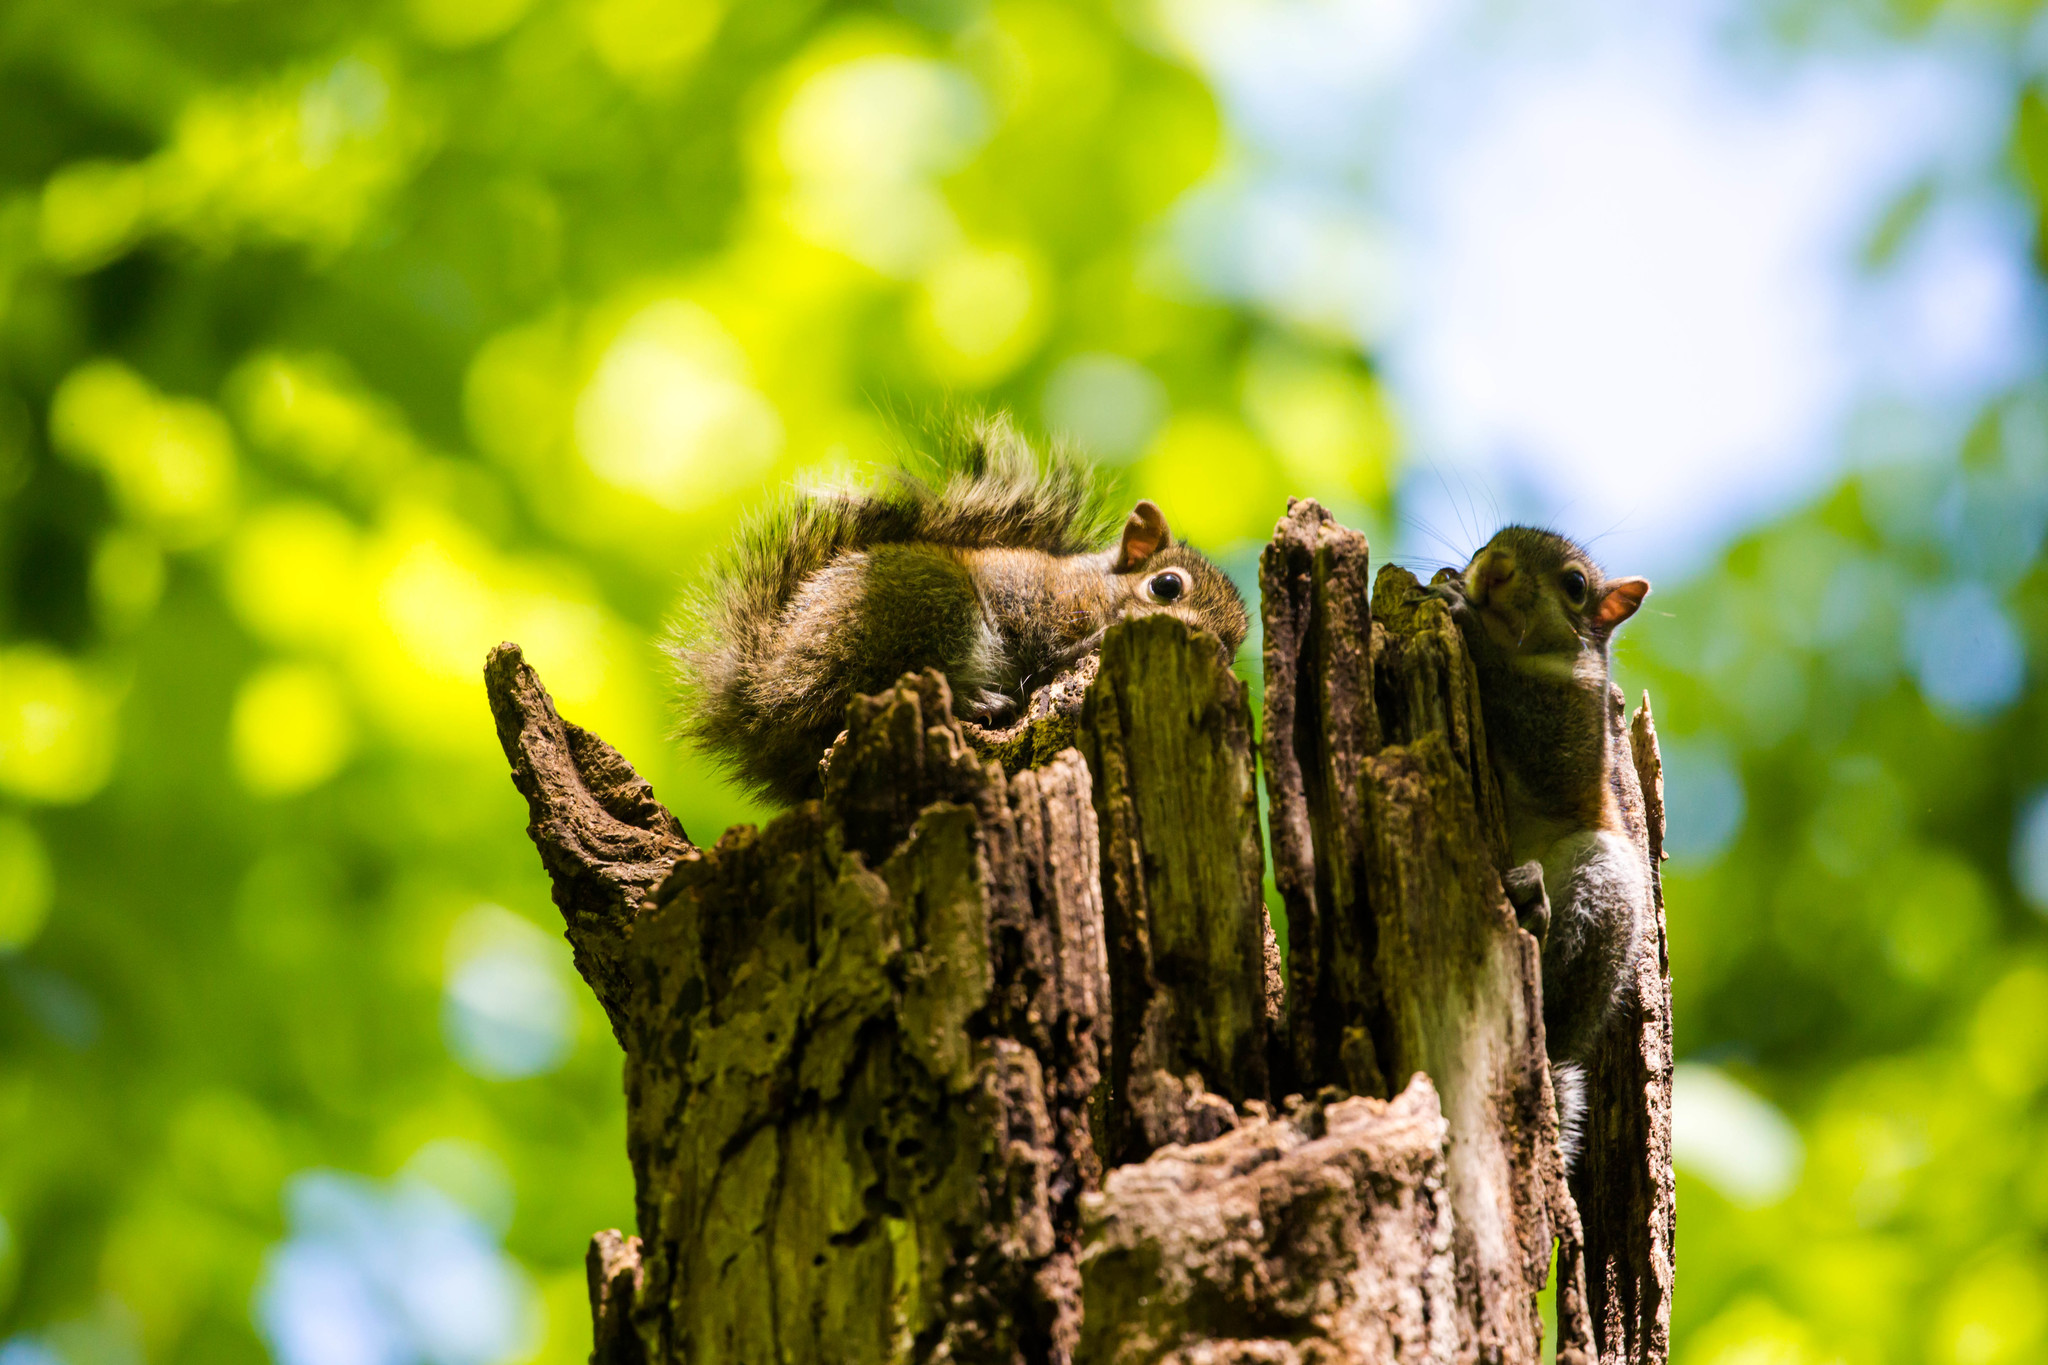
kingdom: Animalia
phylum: Chordata
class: Mammalia
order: Rodentia
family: Sciuridae
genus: Sciurus
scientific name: Sciurus carolinensis
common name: Eastern gray squirrel
